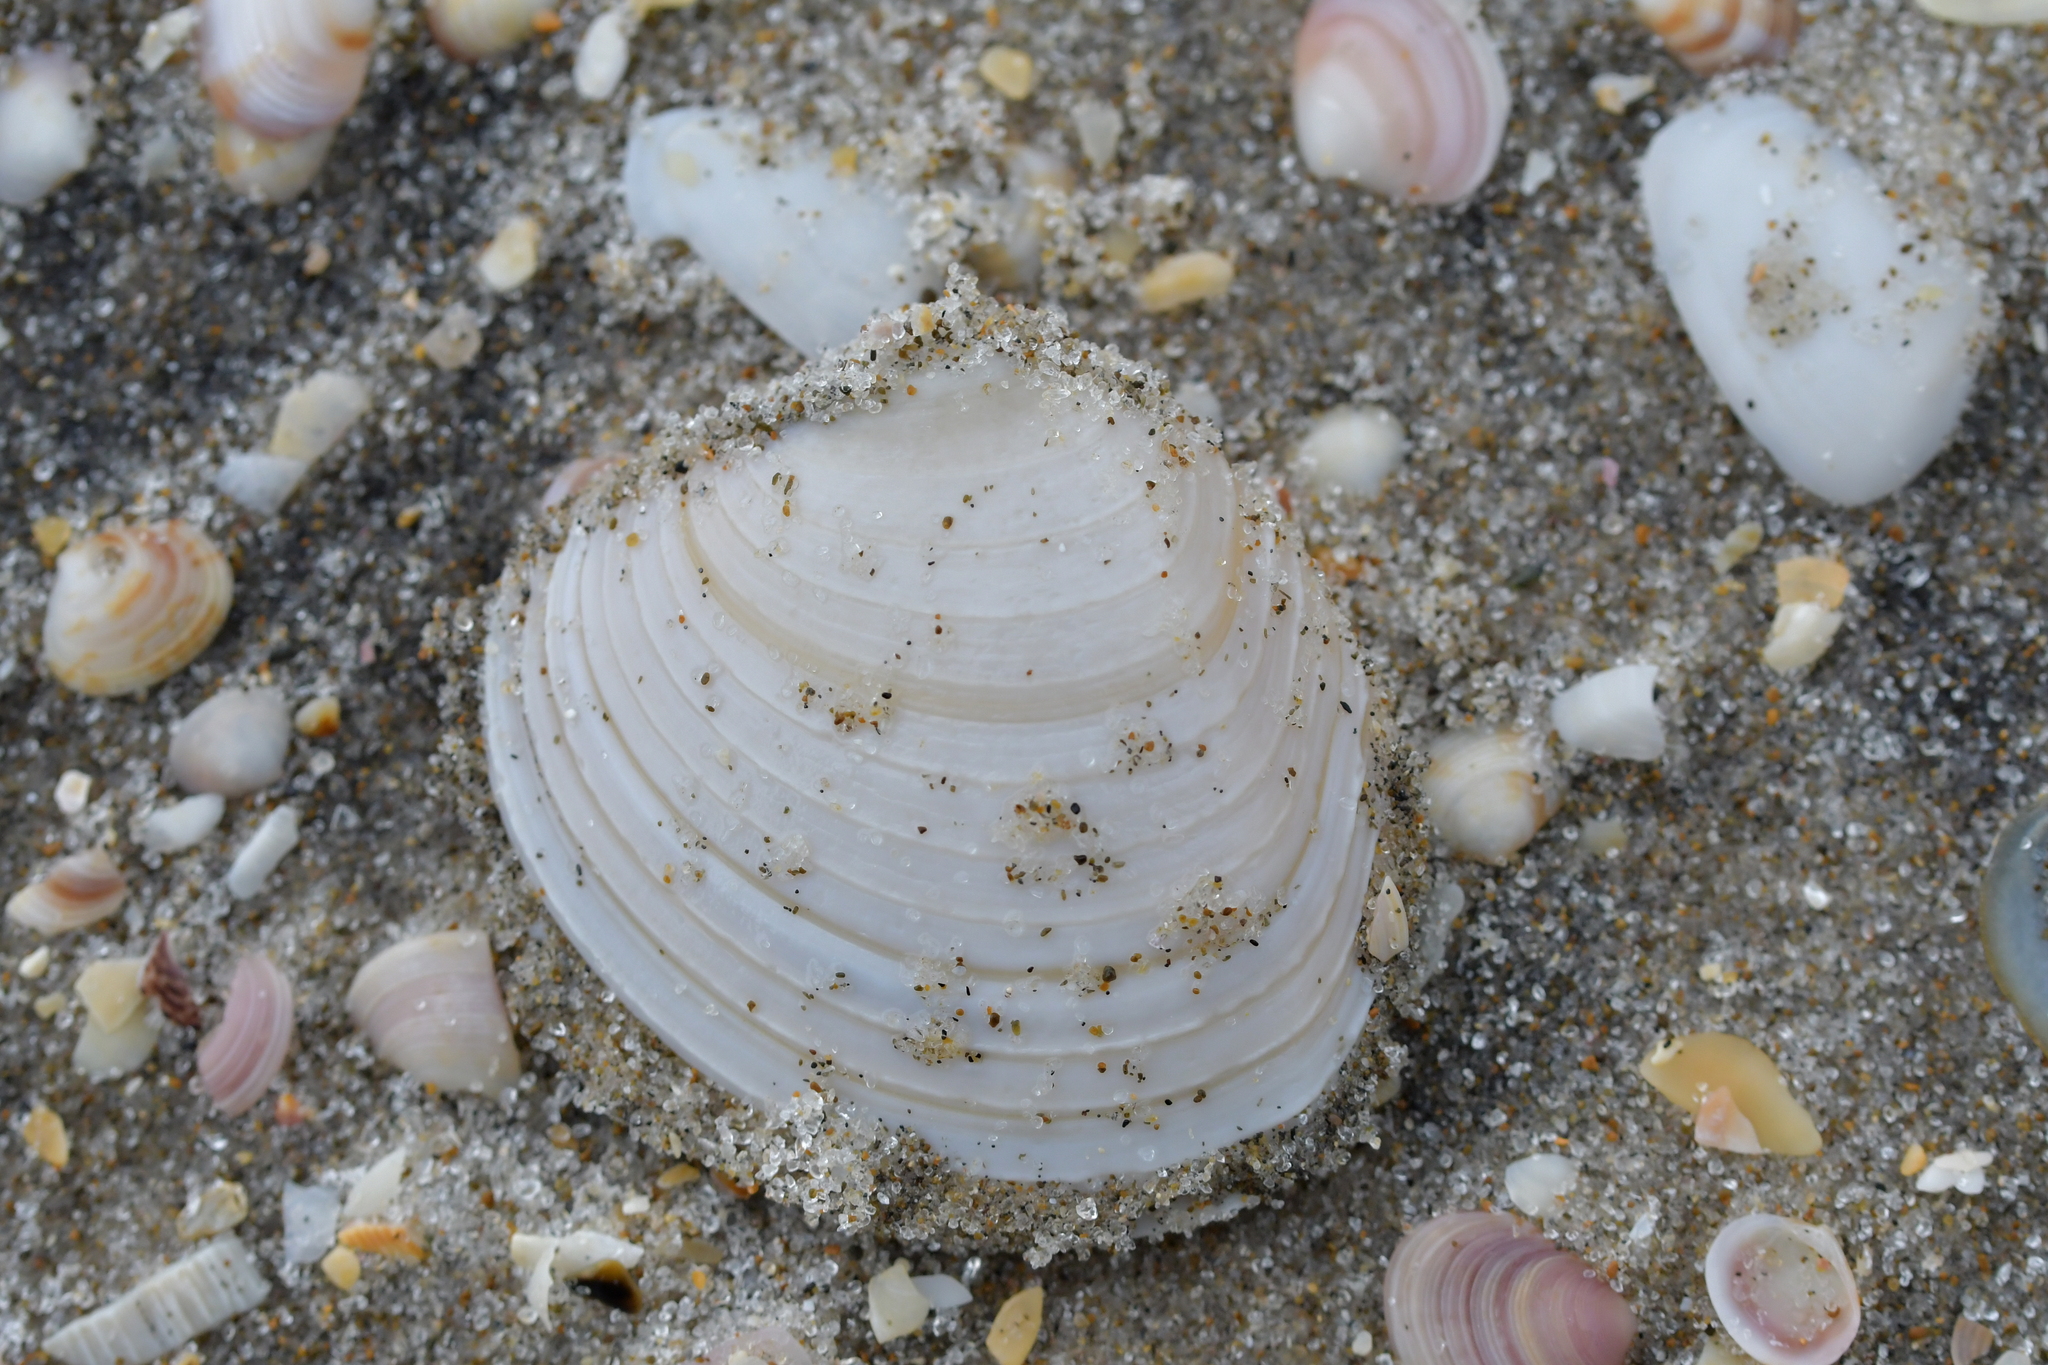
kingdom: Animalia
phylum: Mollusca
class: Bivalvia
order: Venerida
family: Veneridae
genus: Bassina
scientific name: Bassina yatei
